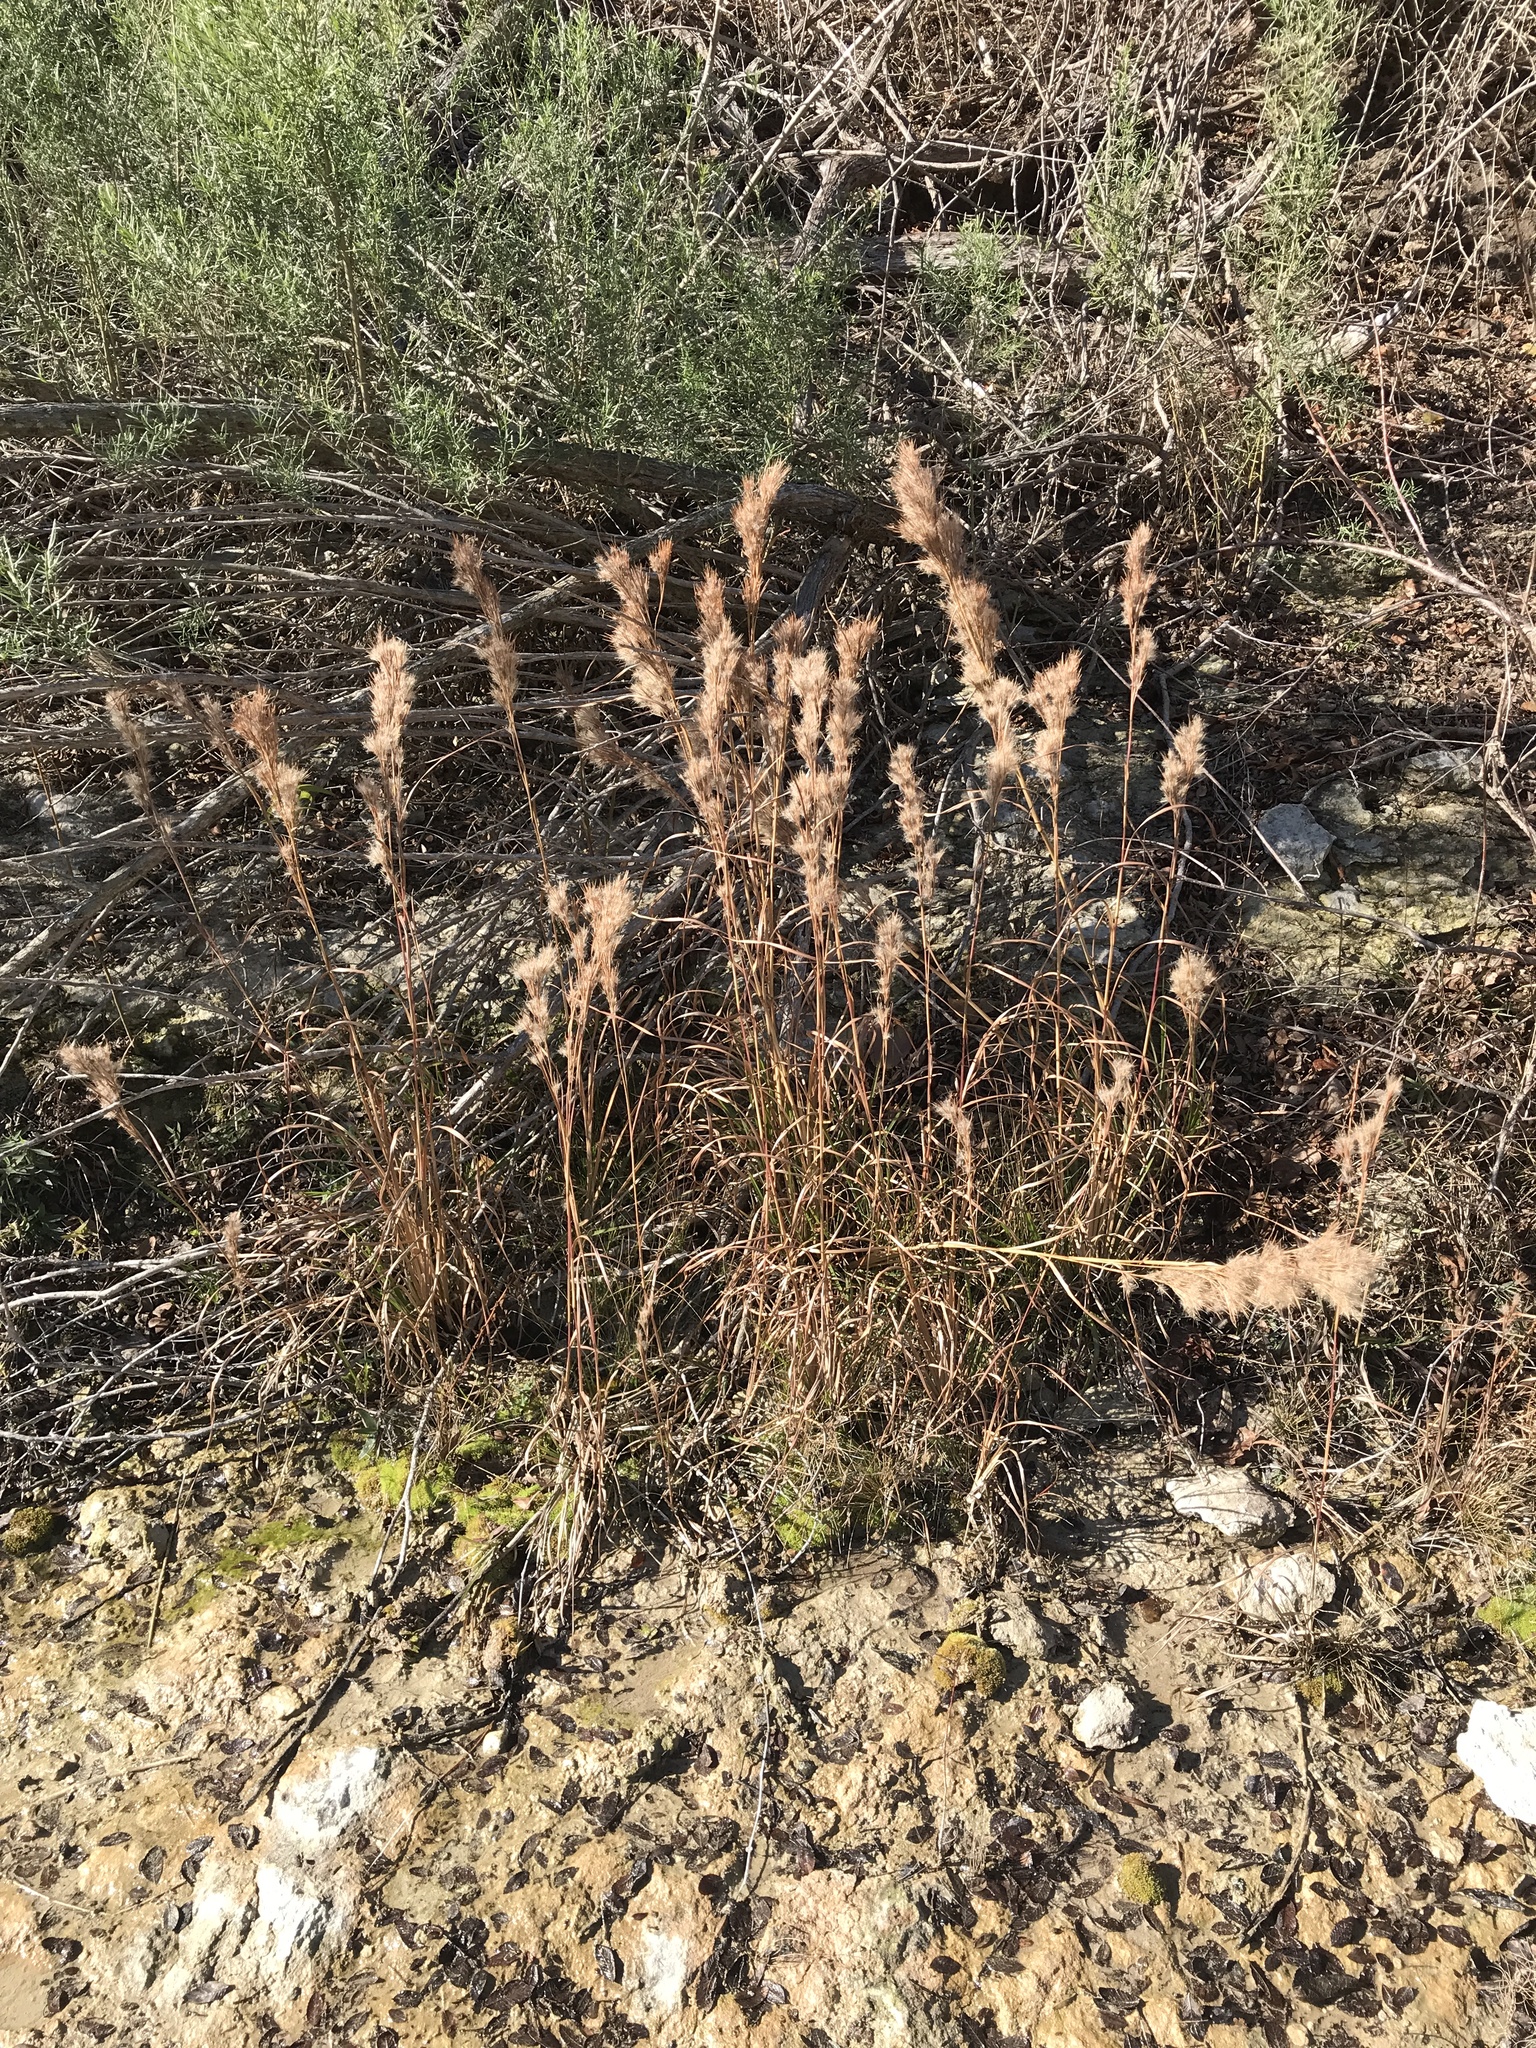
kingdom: Plantae
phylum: Tracheophyta
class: Liliopsida
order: Poales
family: Poaceae
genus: Andropogon
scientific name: Andropogon tenuispatheus
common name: Bushy bluestem
